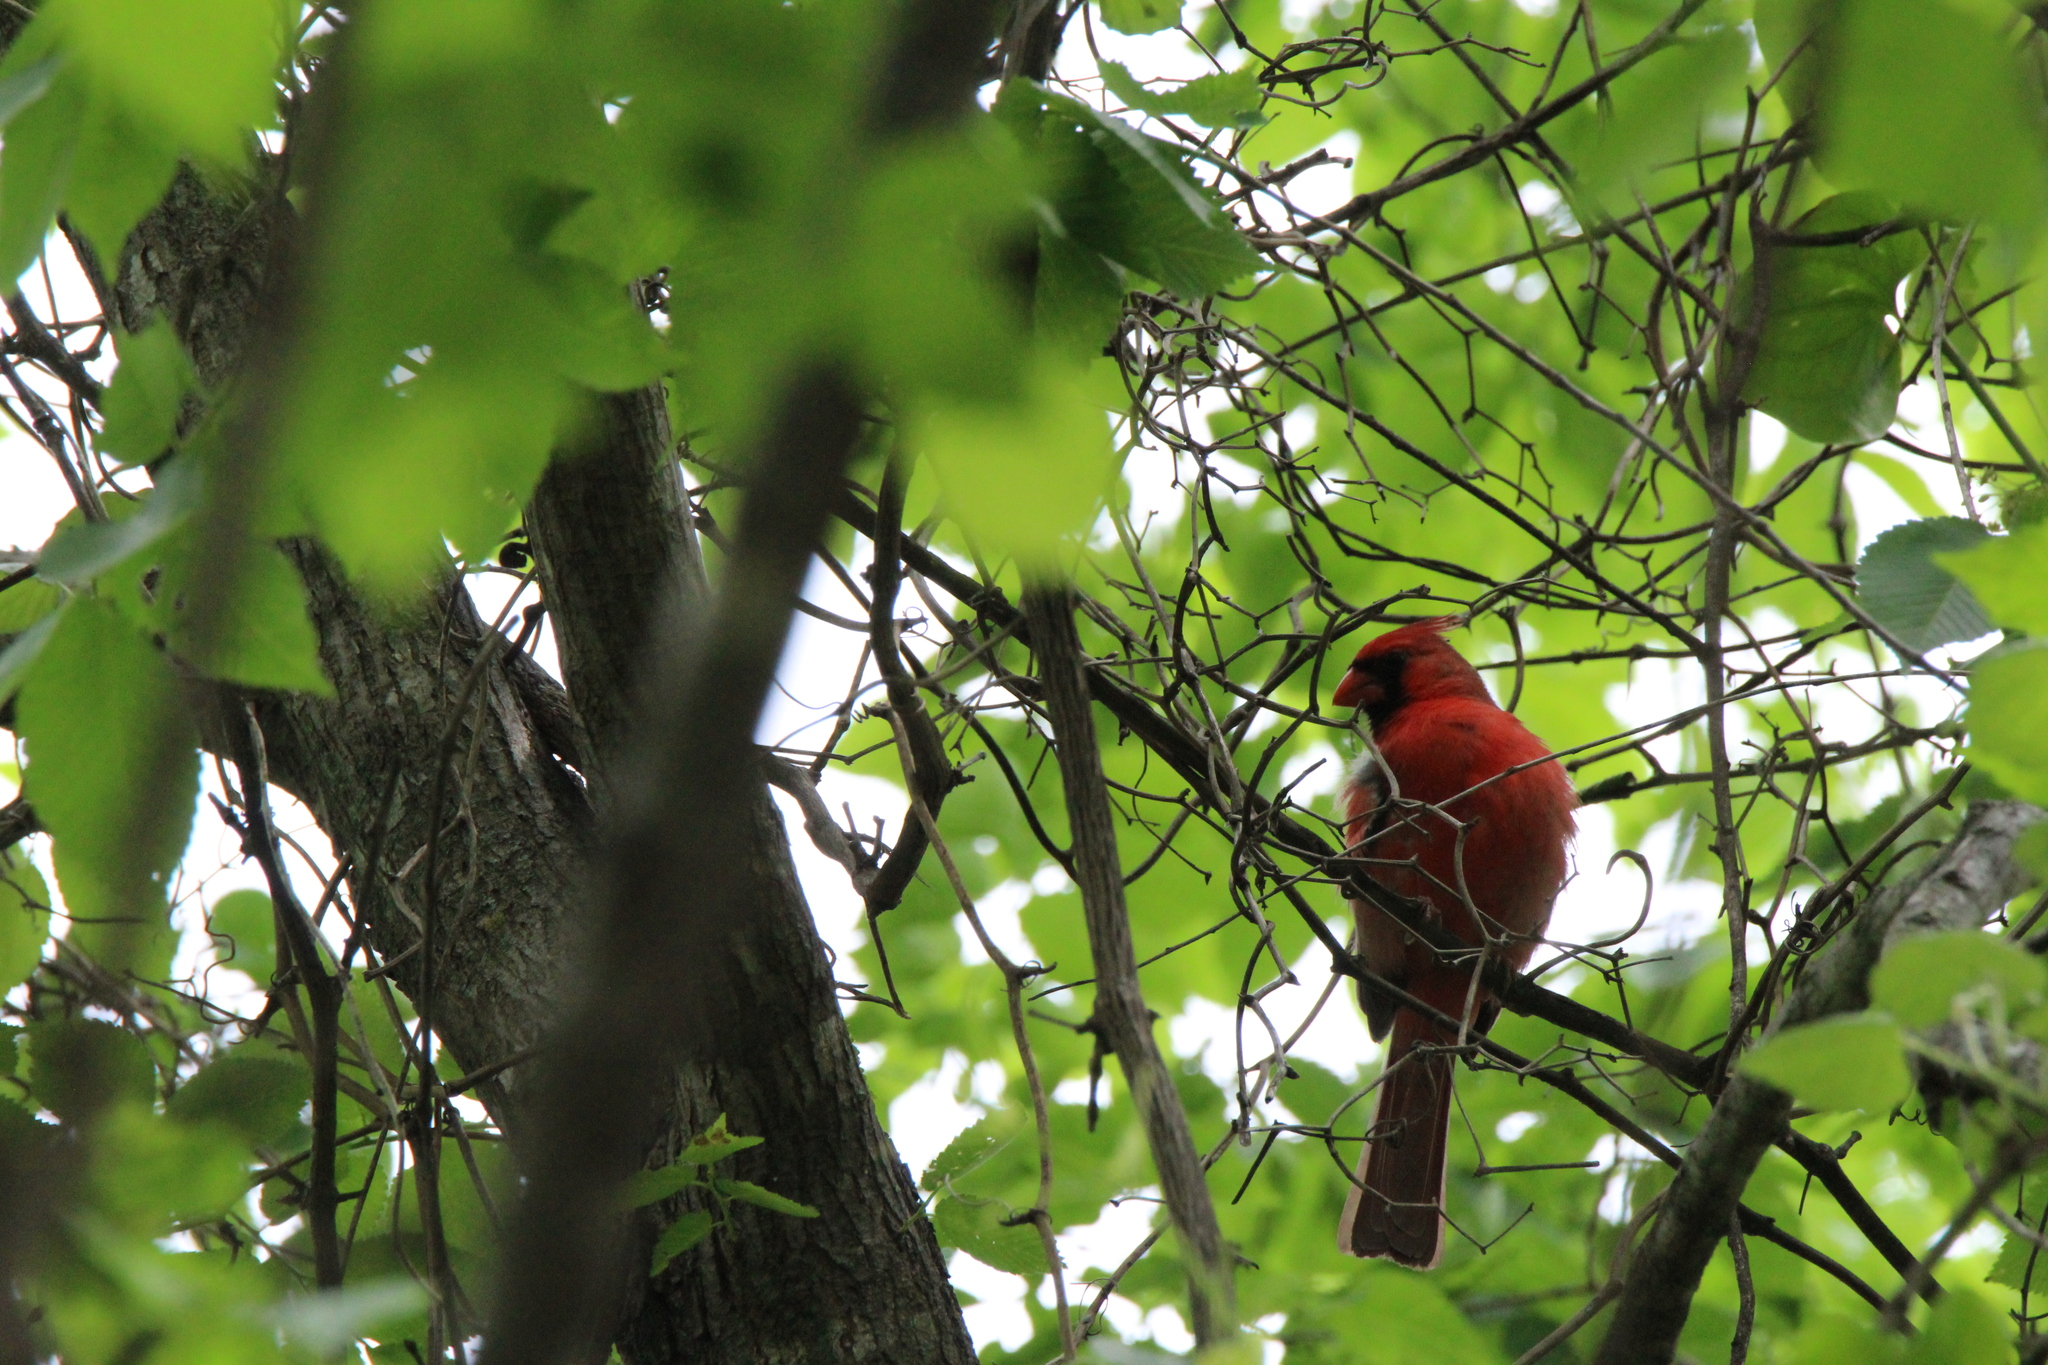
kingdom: Animalia
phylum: Chordata
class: Aves
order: Passeriformes
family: Cardinalidae
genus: Cardinalis
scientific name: Cardinalis cardinalis
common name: Northern cardinal
